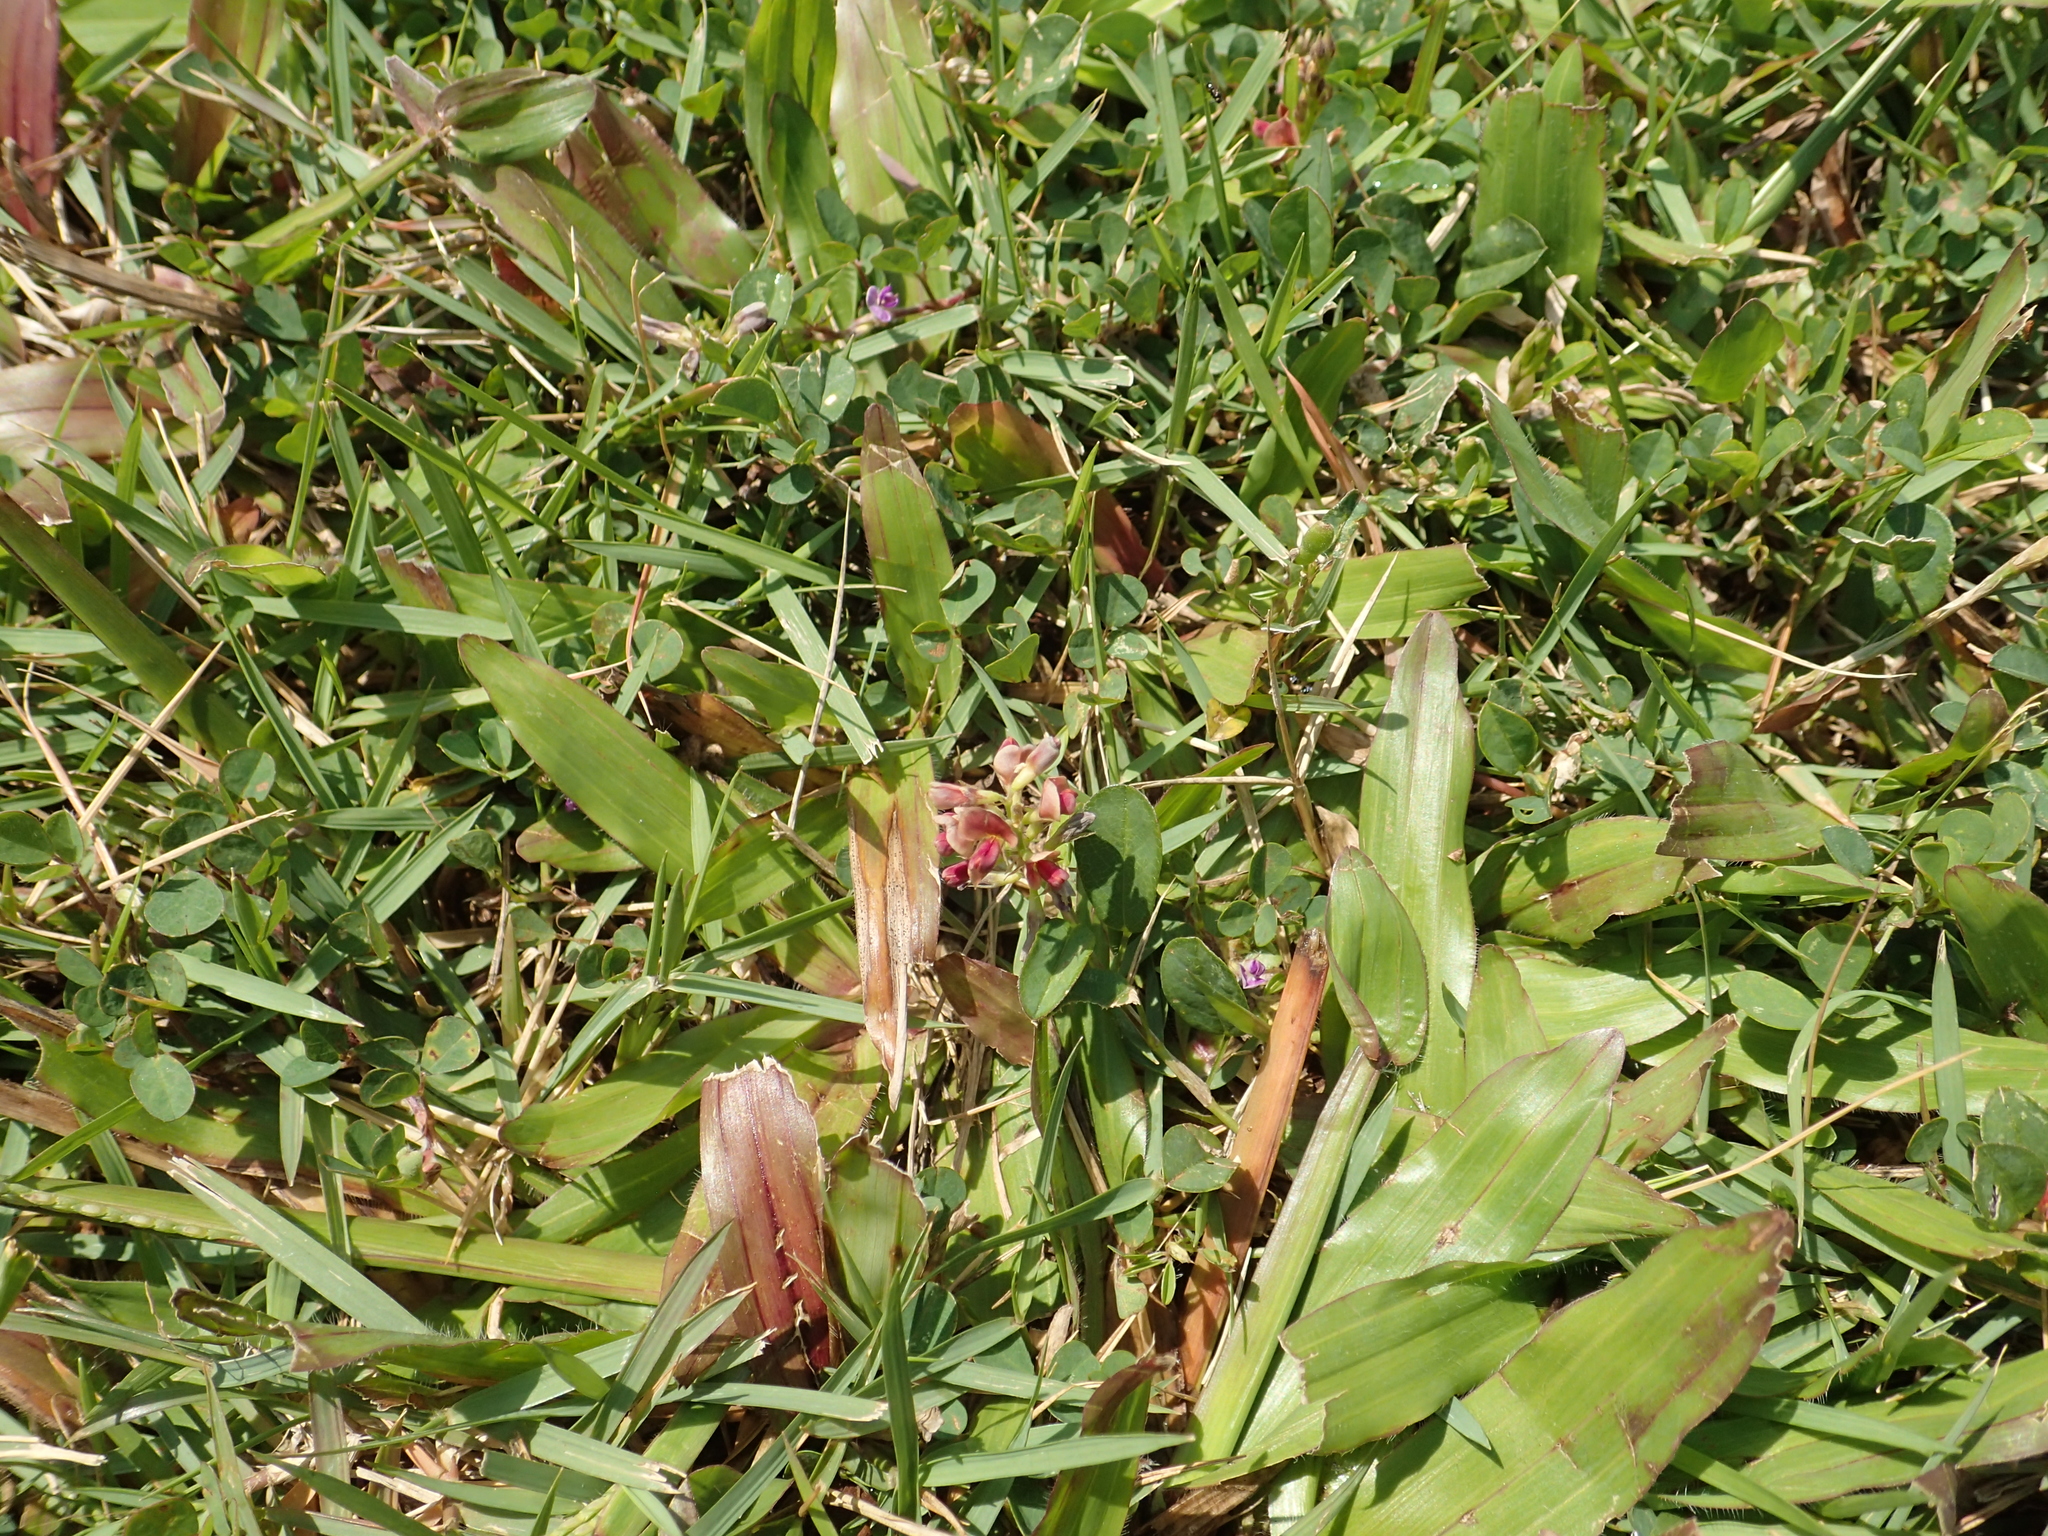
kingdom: Plantae
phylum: Tracheophyta
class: Magnoliopsida
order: Fabales
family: Fabaceae
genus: Alysicarpus
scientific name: Alysicarpus vaginalis
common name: White moneywort
